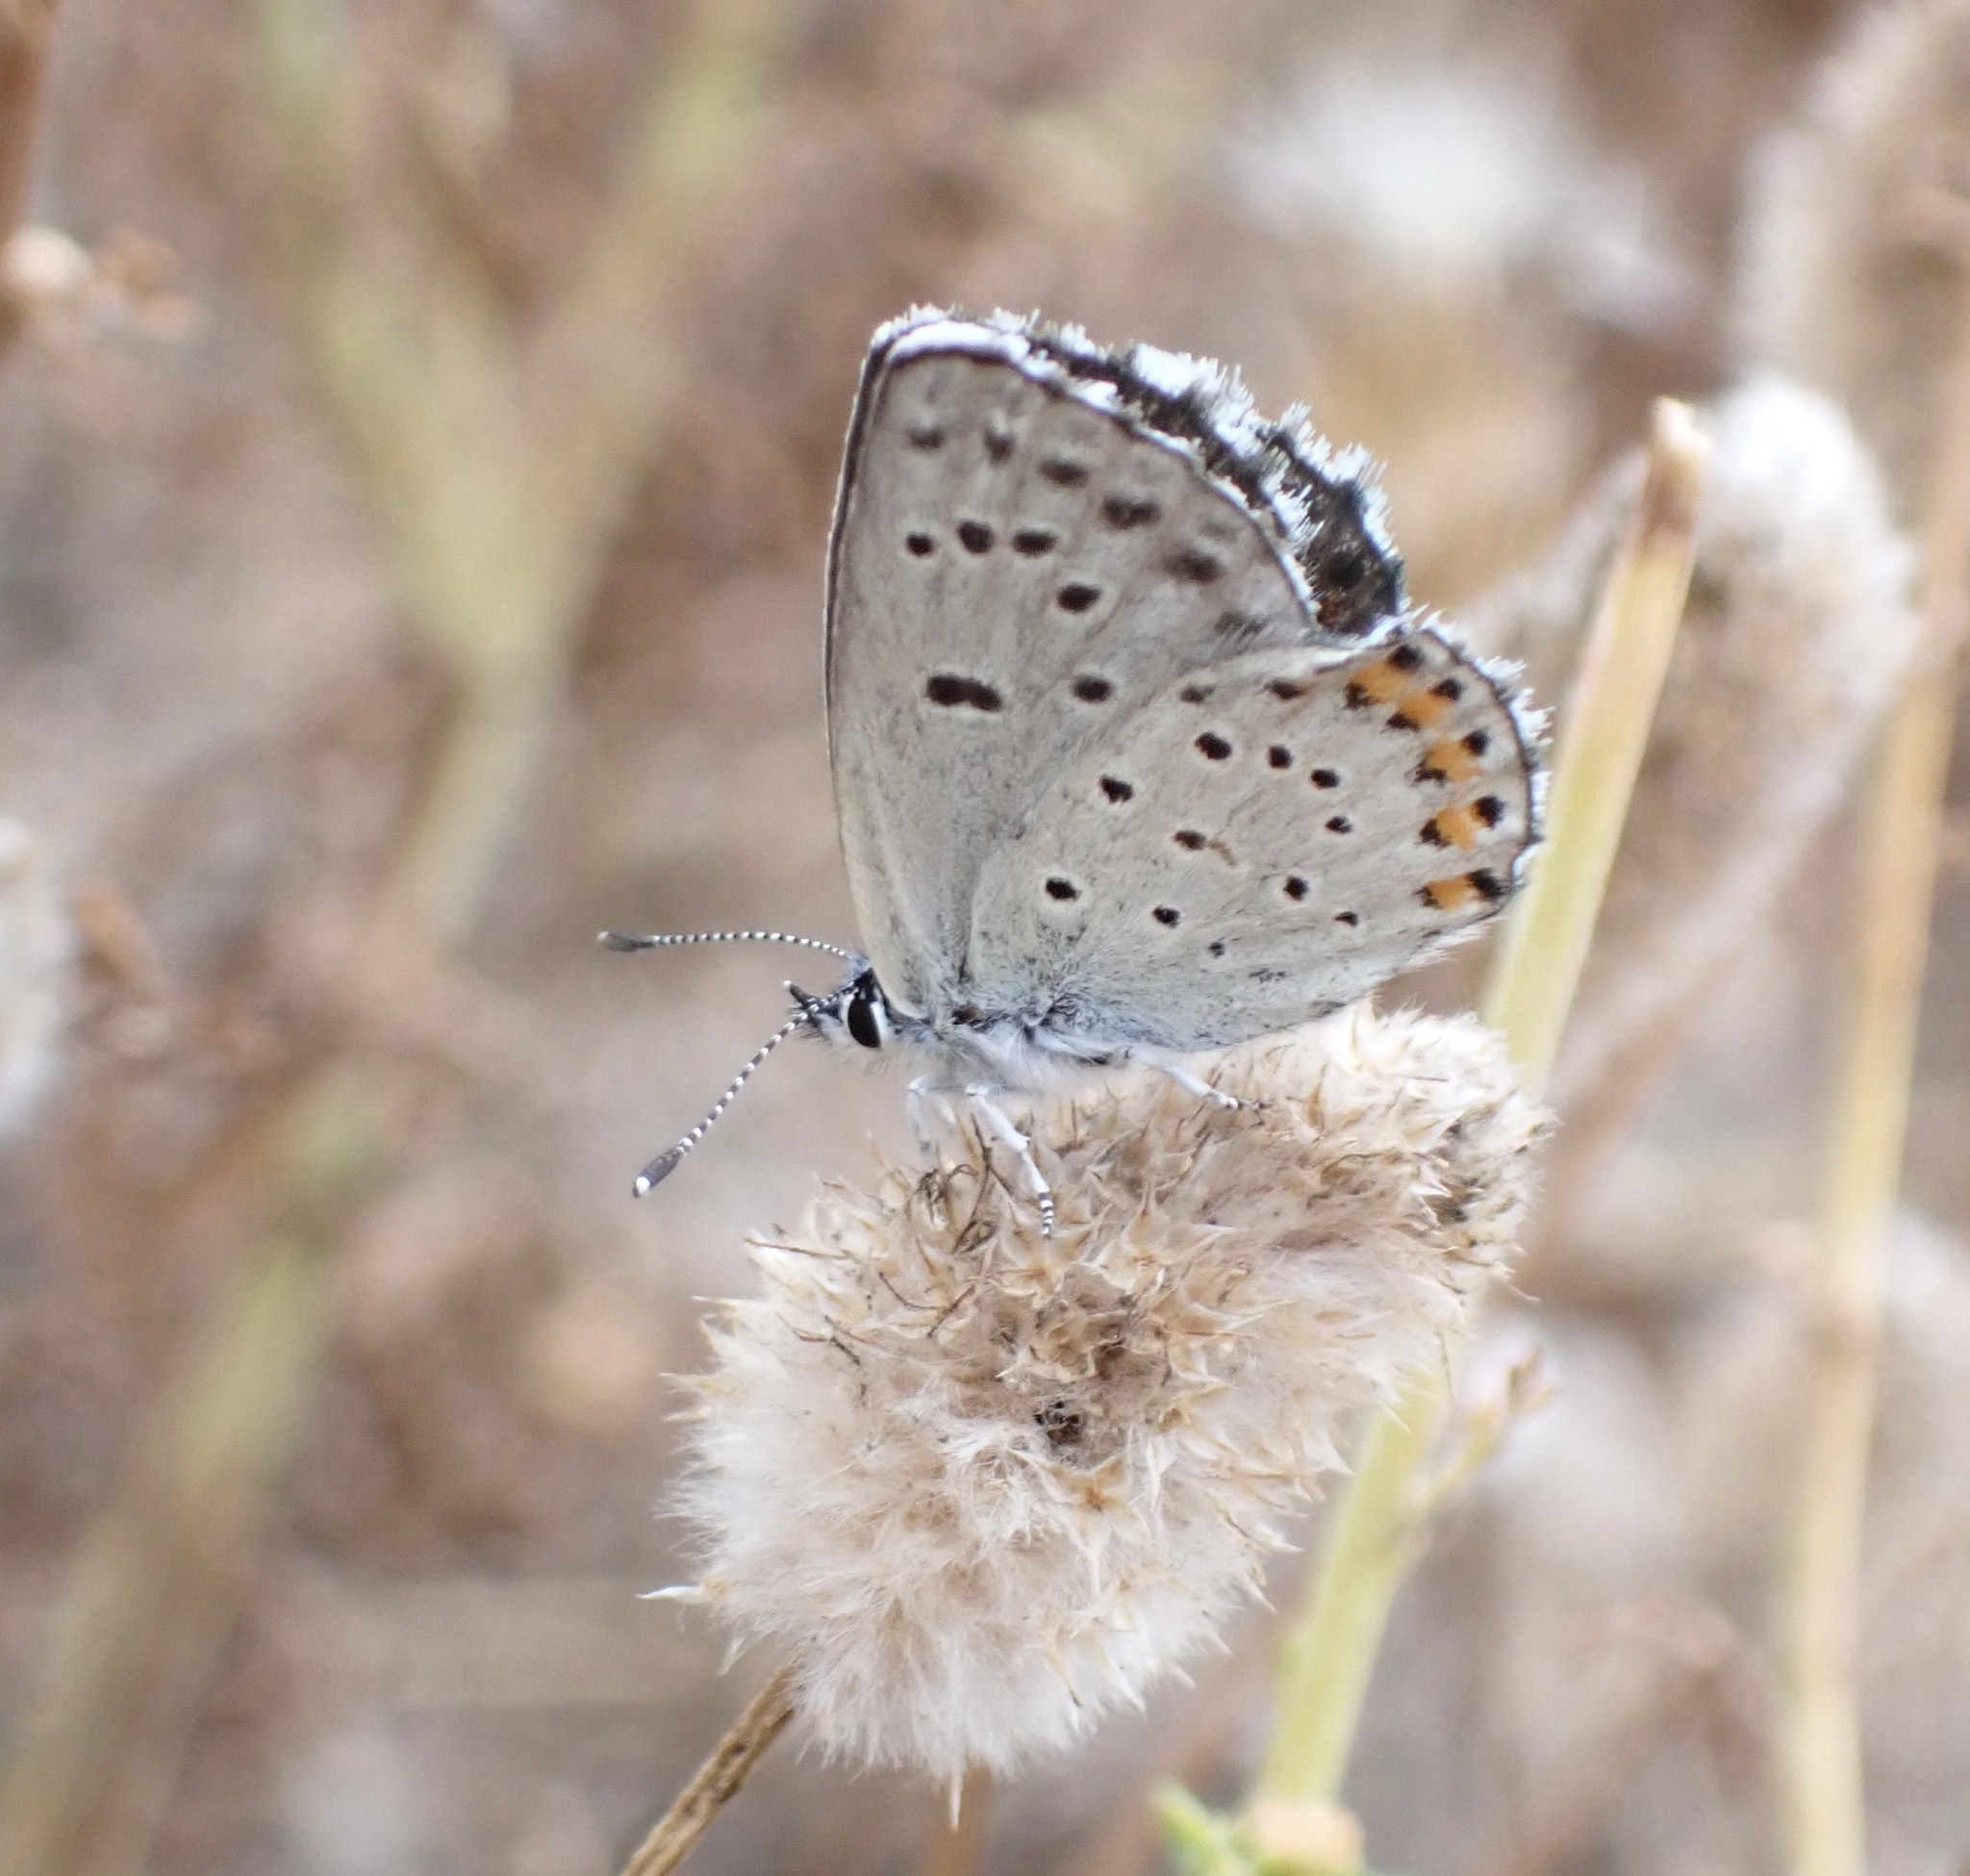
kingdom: Animalia
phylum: Arthropoda
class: Insecta
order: Lepidoptera
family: Lycaenidae
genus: Pseudophilotes
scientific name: Pseudophilotes baton
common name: Baton blue
